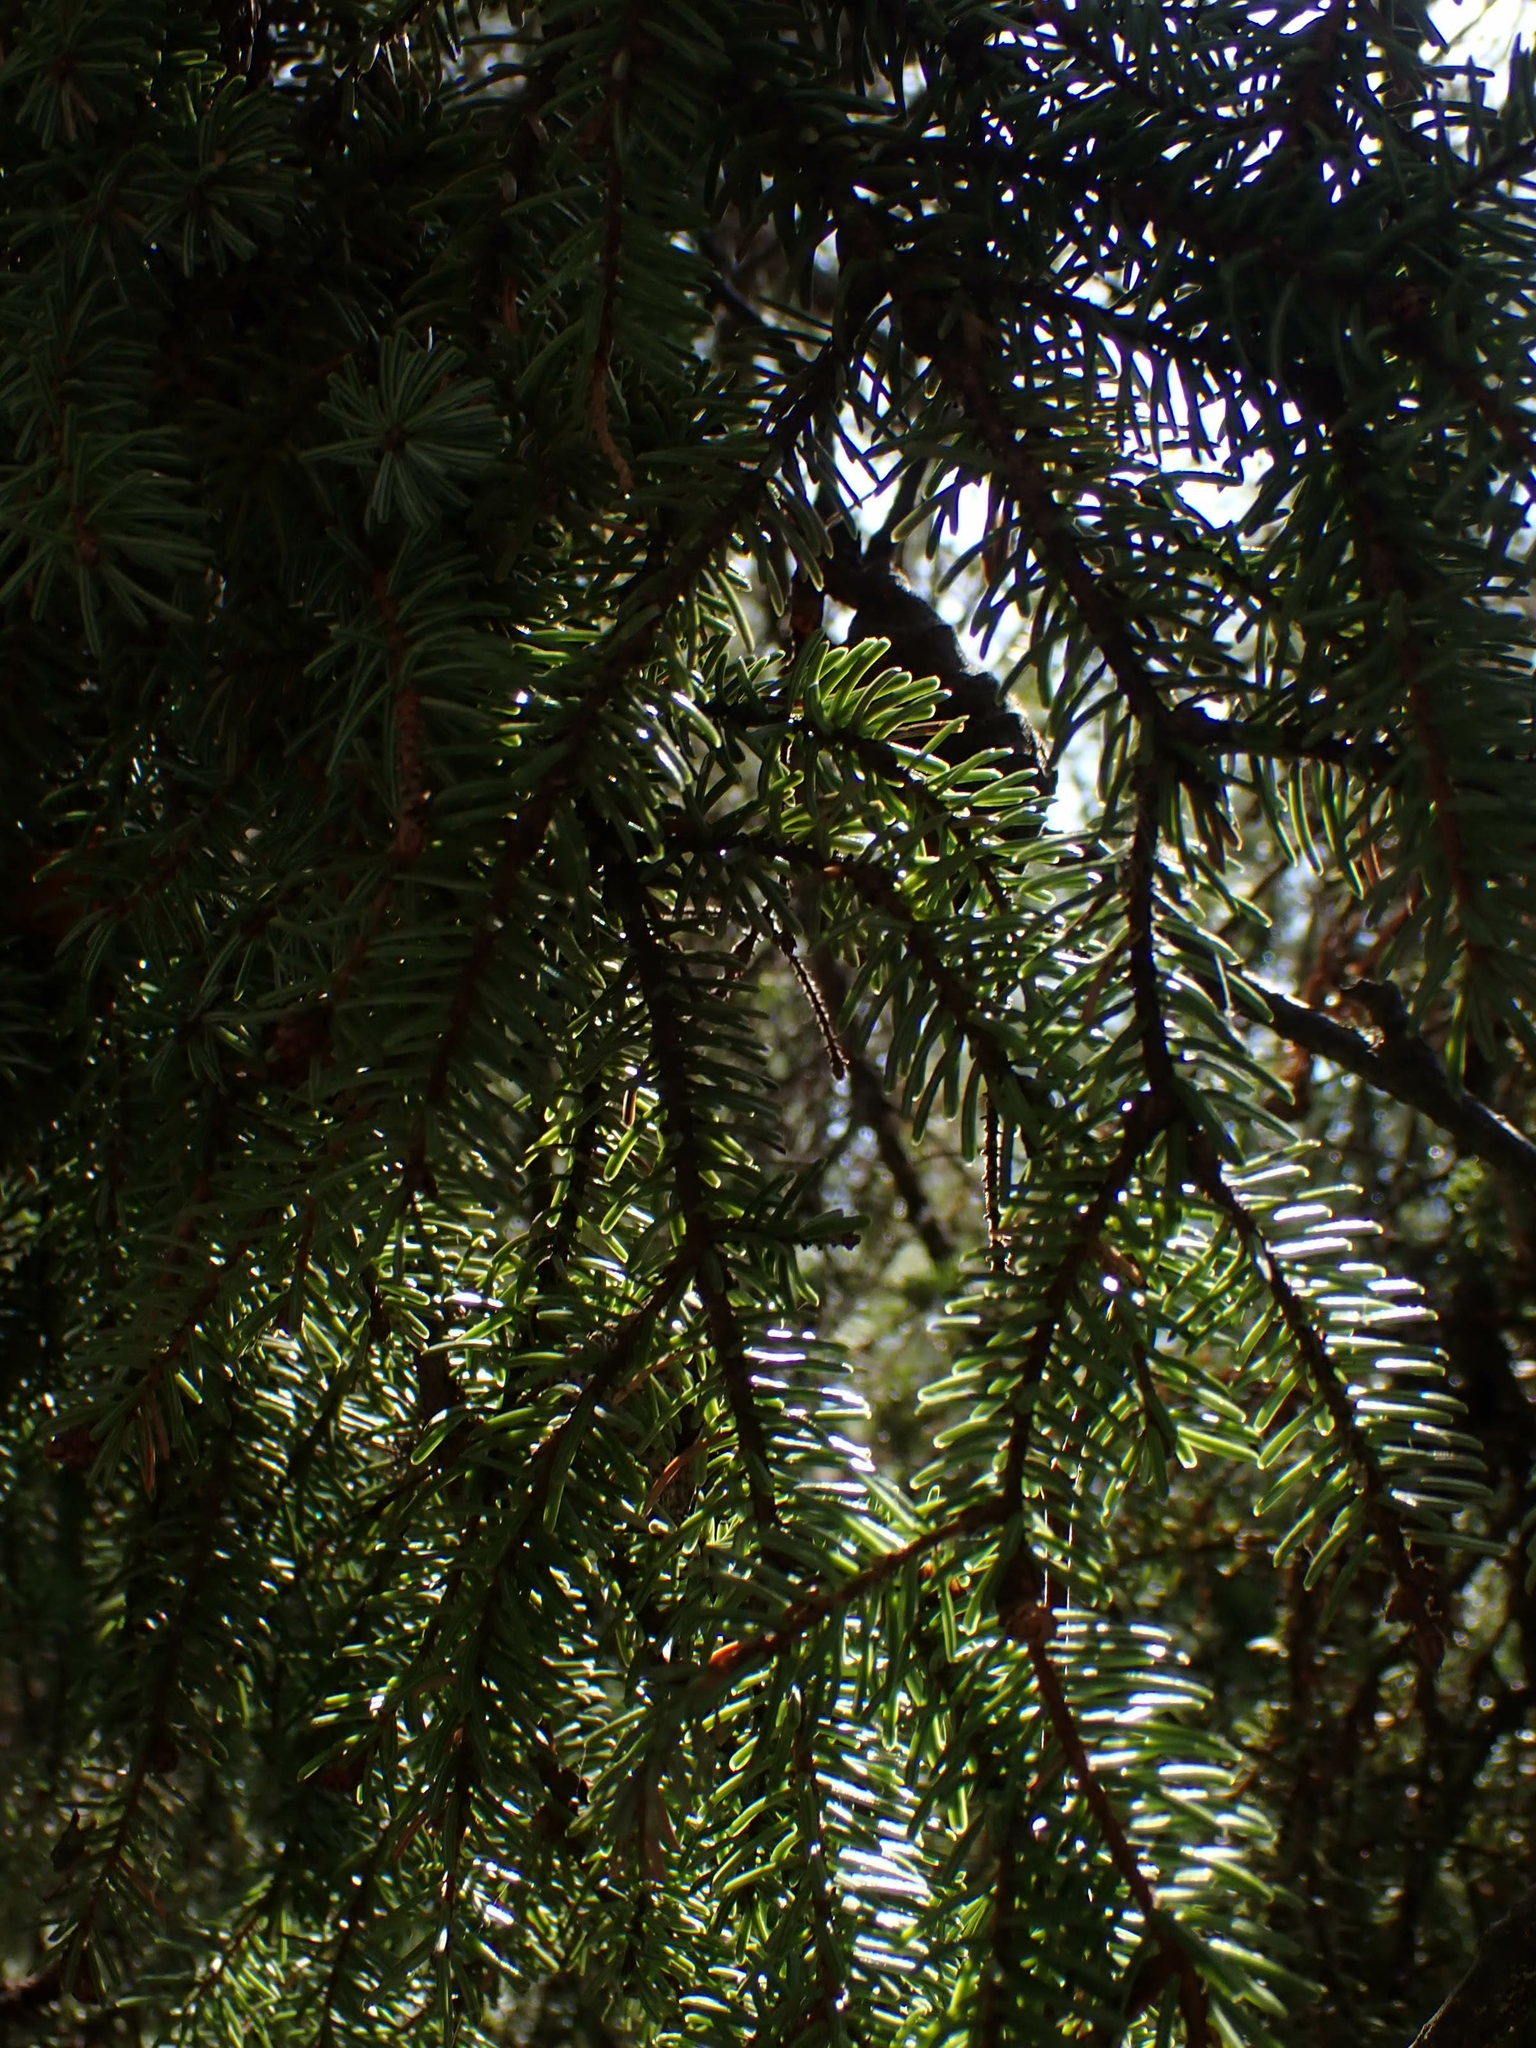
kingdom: Plantae
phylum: Tracheophyta
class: Pinopsida
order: Pinales
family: Pinaceae
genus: Picea
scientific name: Picea mariana
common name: Black spruce
